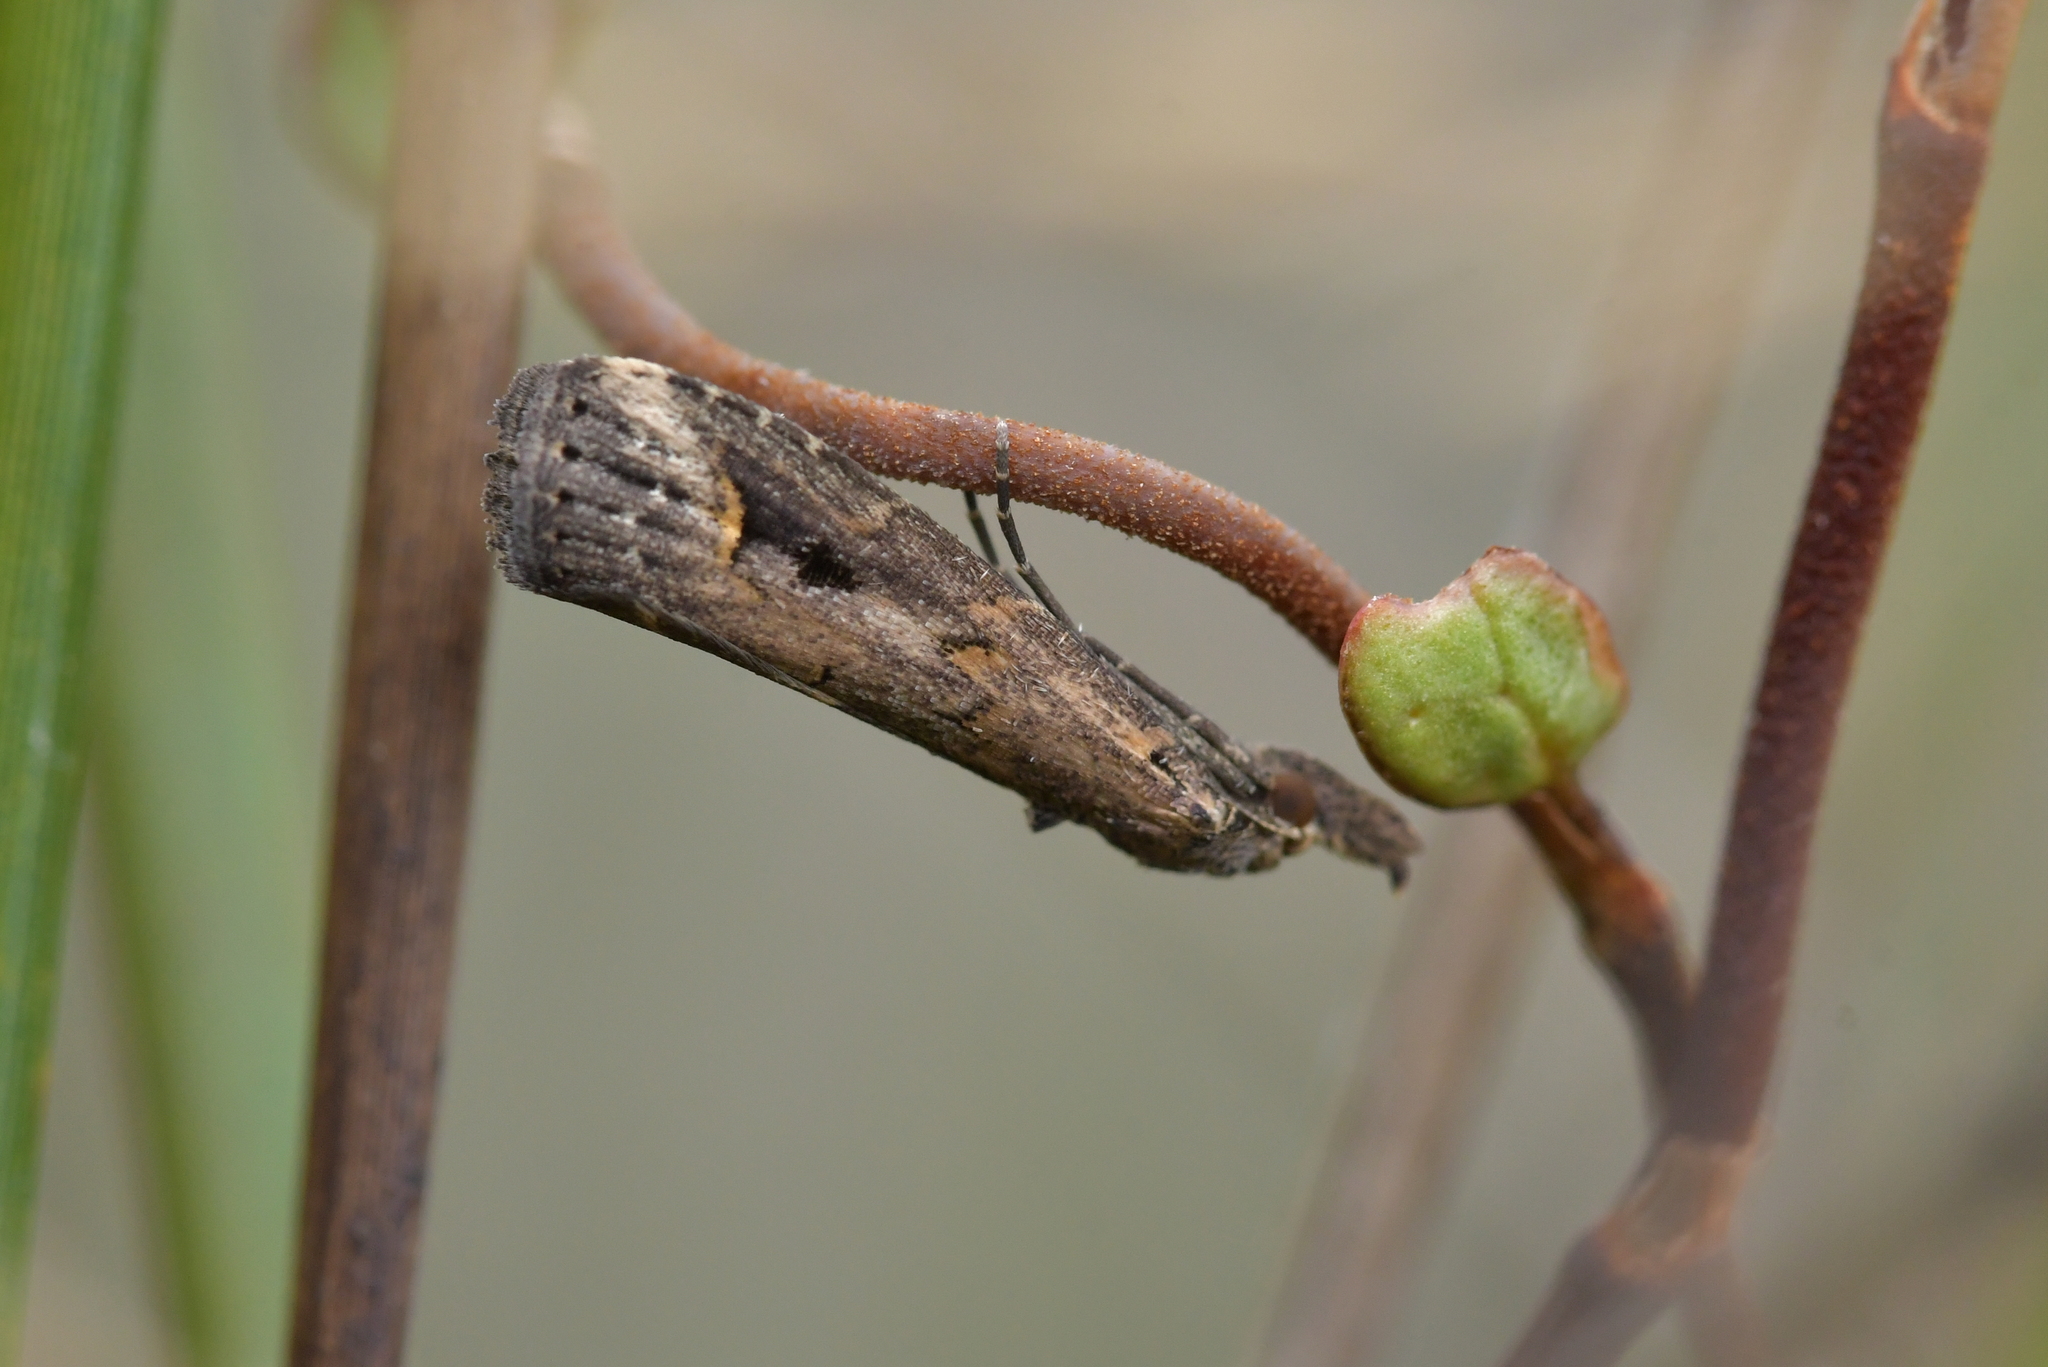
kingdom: Animalia
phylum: Arthropoda
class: Insecta
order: Lepidoptera
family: Erebidae
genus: Schrankia
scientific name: Schrankia costaestrigalis
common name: Pinion-streaked snout
